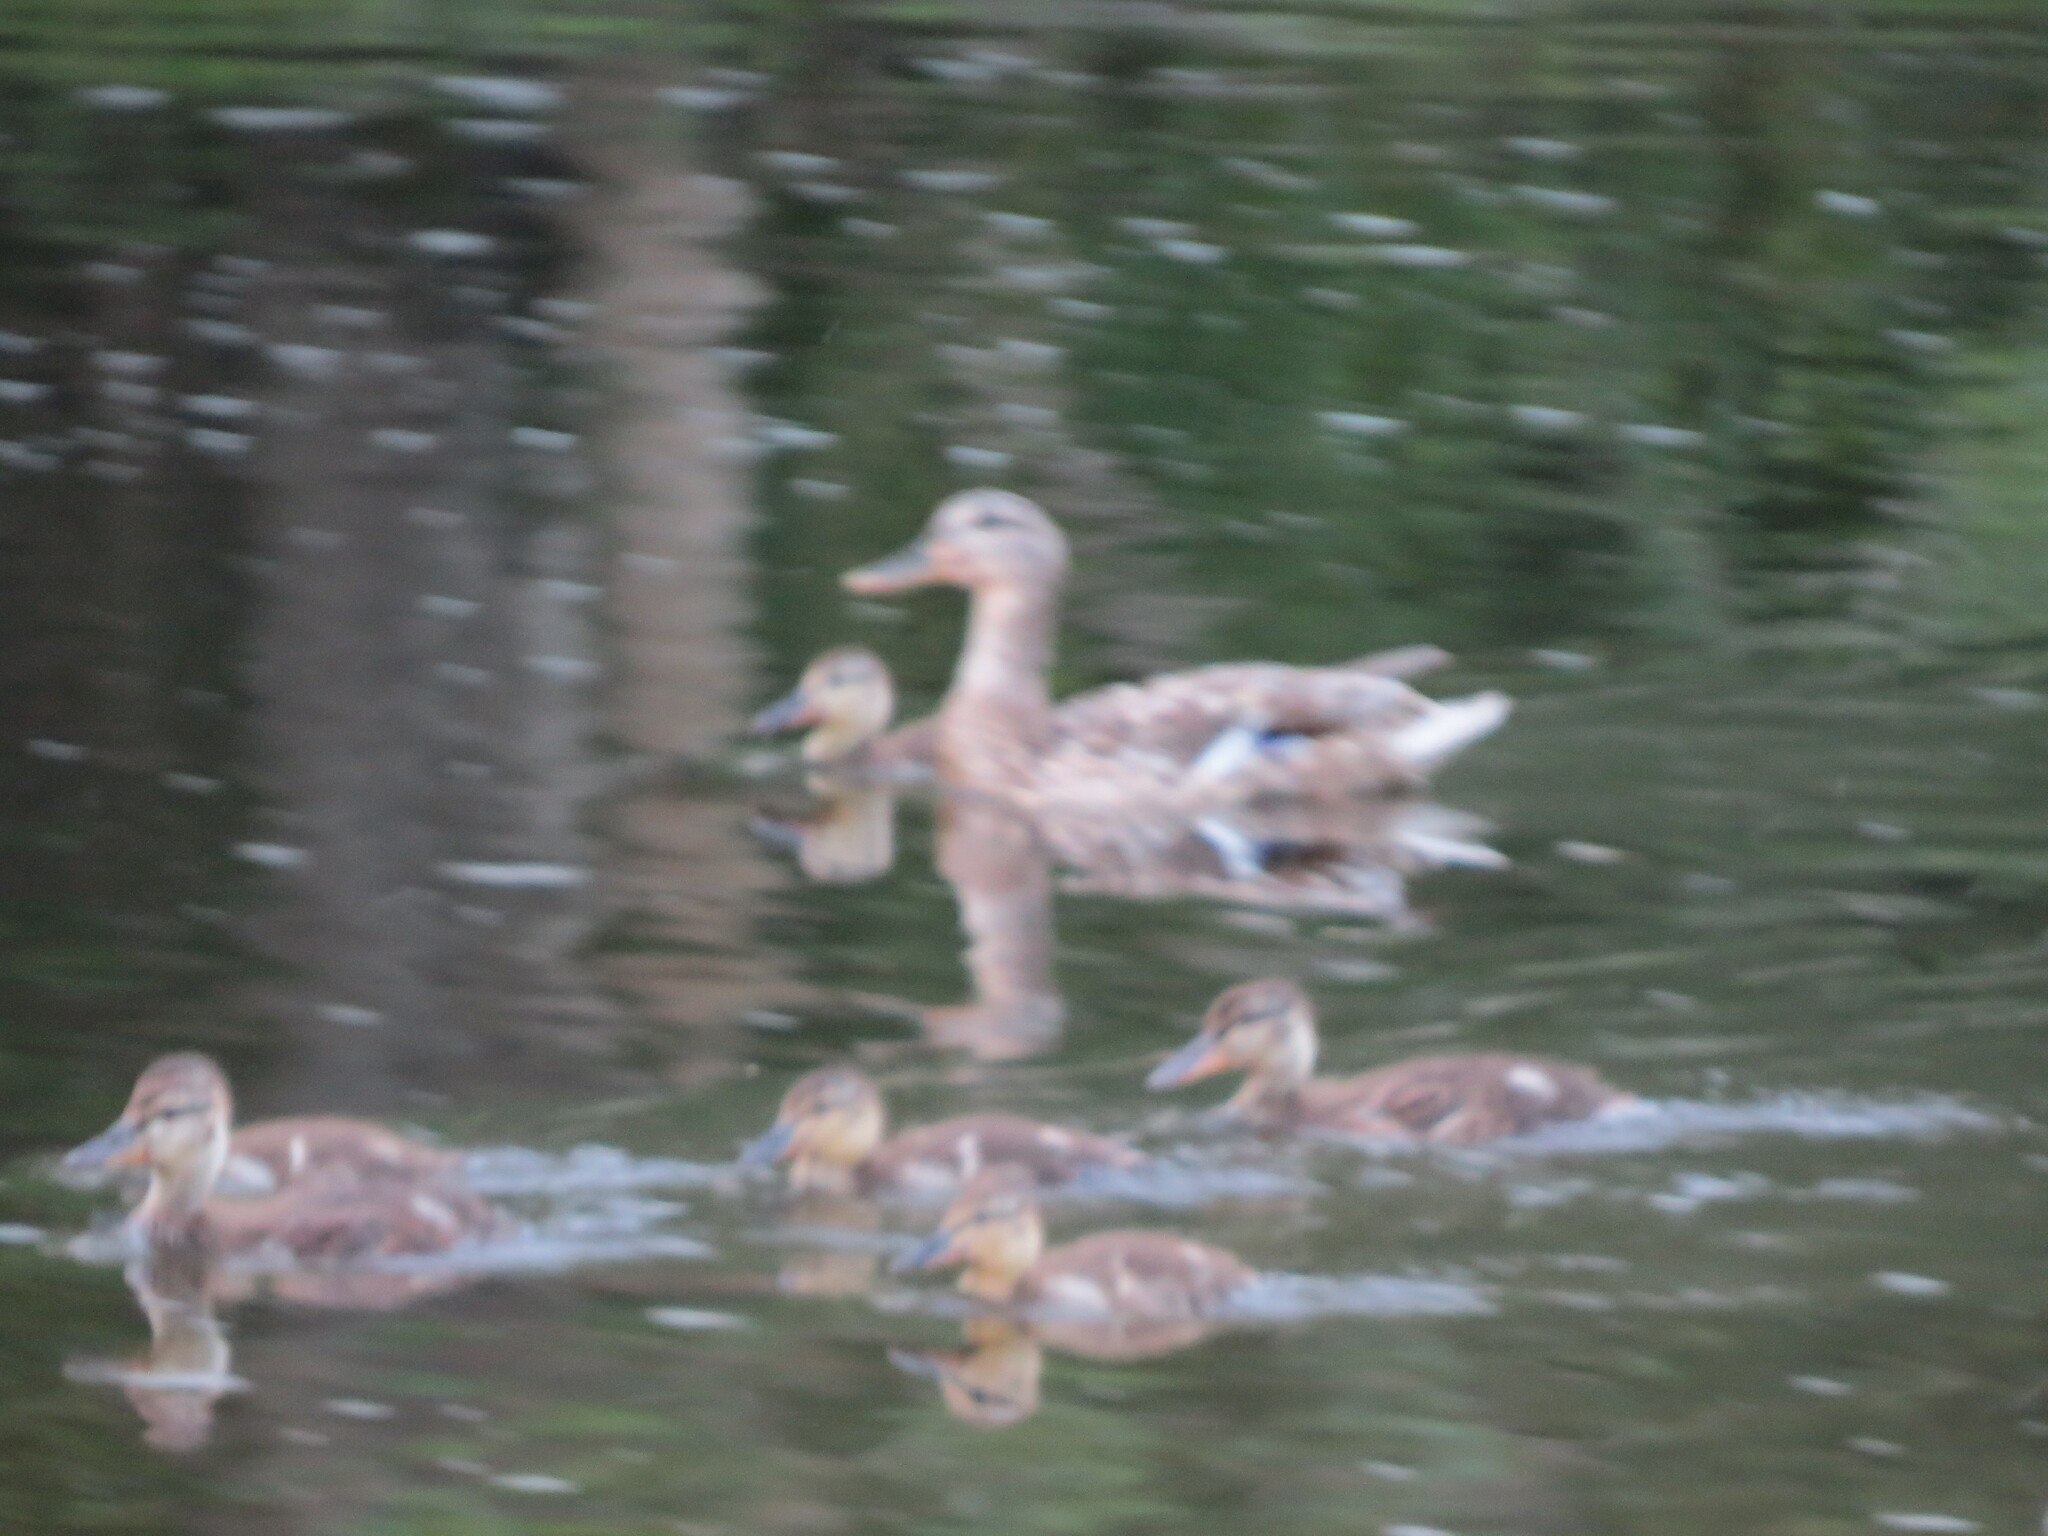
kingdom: Animalia
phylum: Chordata
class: Aves
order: Anseriformes
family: Anatidae
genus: Anas
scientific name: Anas platyrhynchos
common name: Mallard
